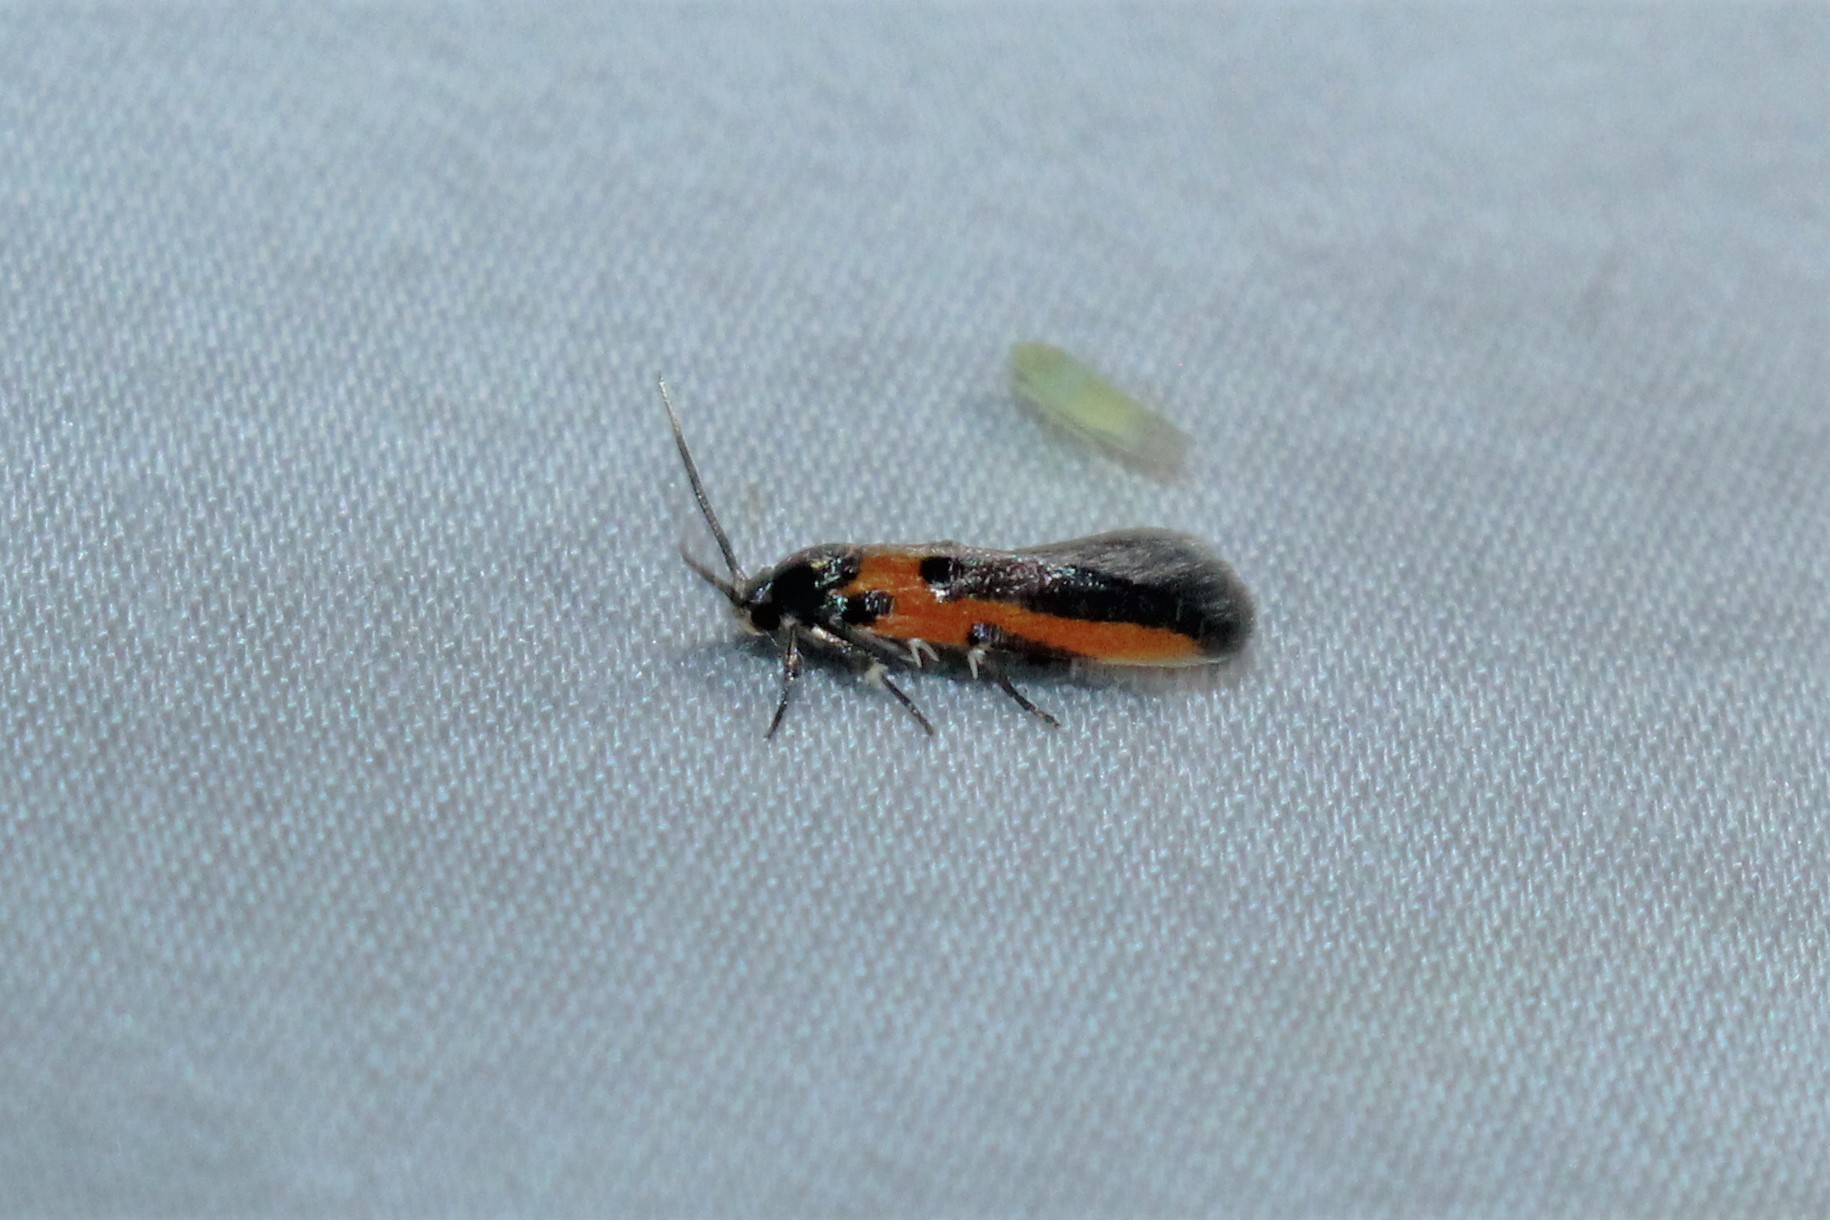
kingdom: Animalia
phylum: Arthropoda
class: Insecta
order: Lepidoptera
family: Cosmopterigidae
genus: Euclemensia
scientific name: Euclemensia bassettella
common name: Kermes scale moth
